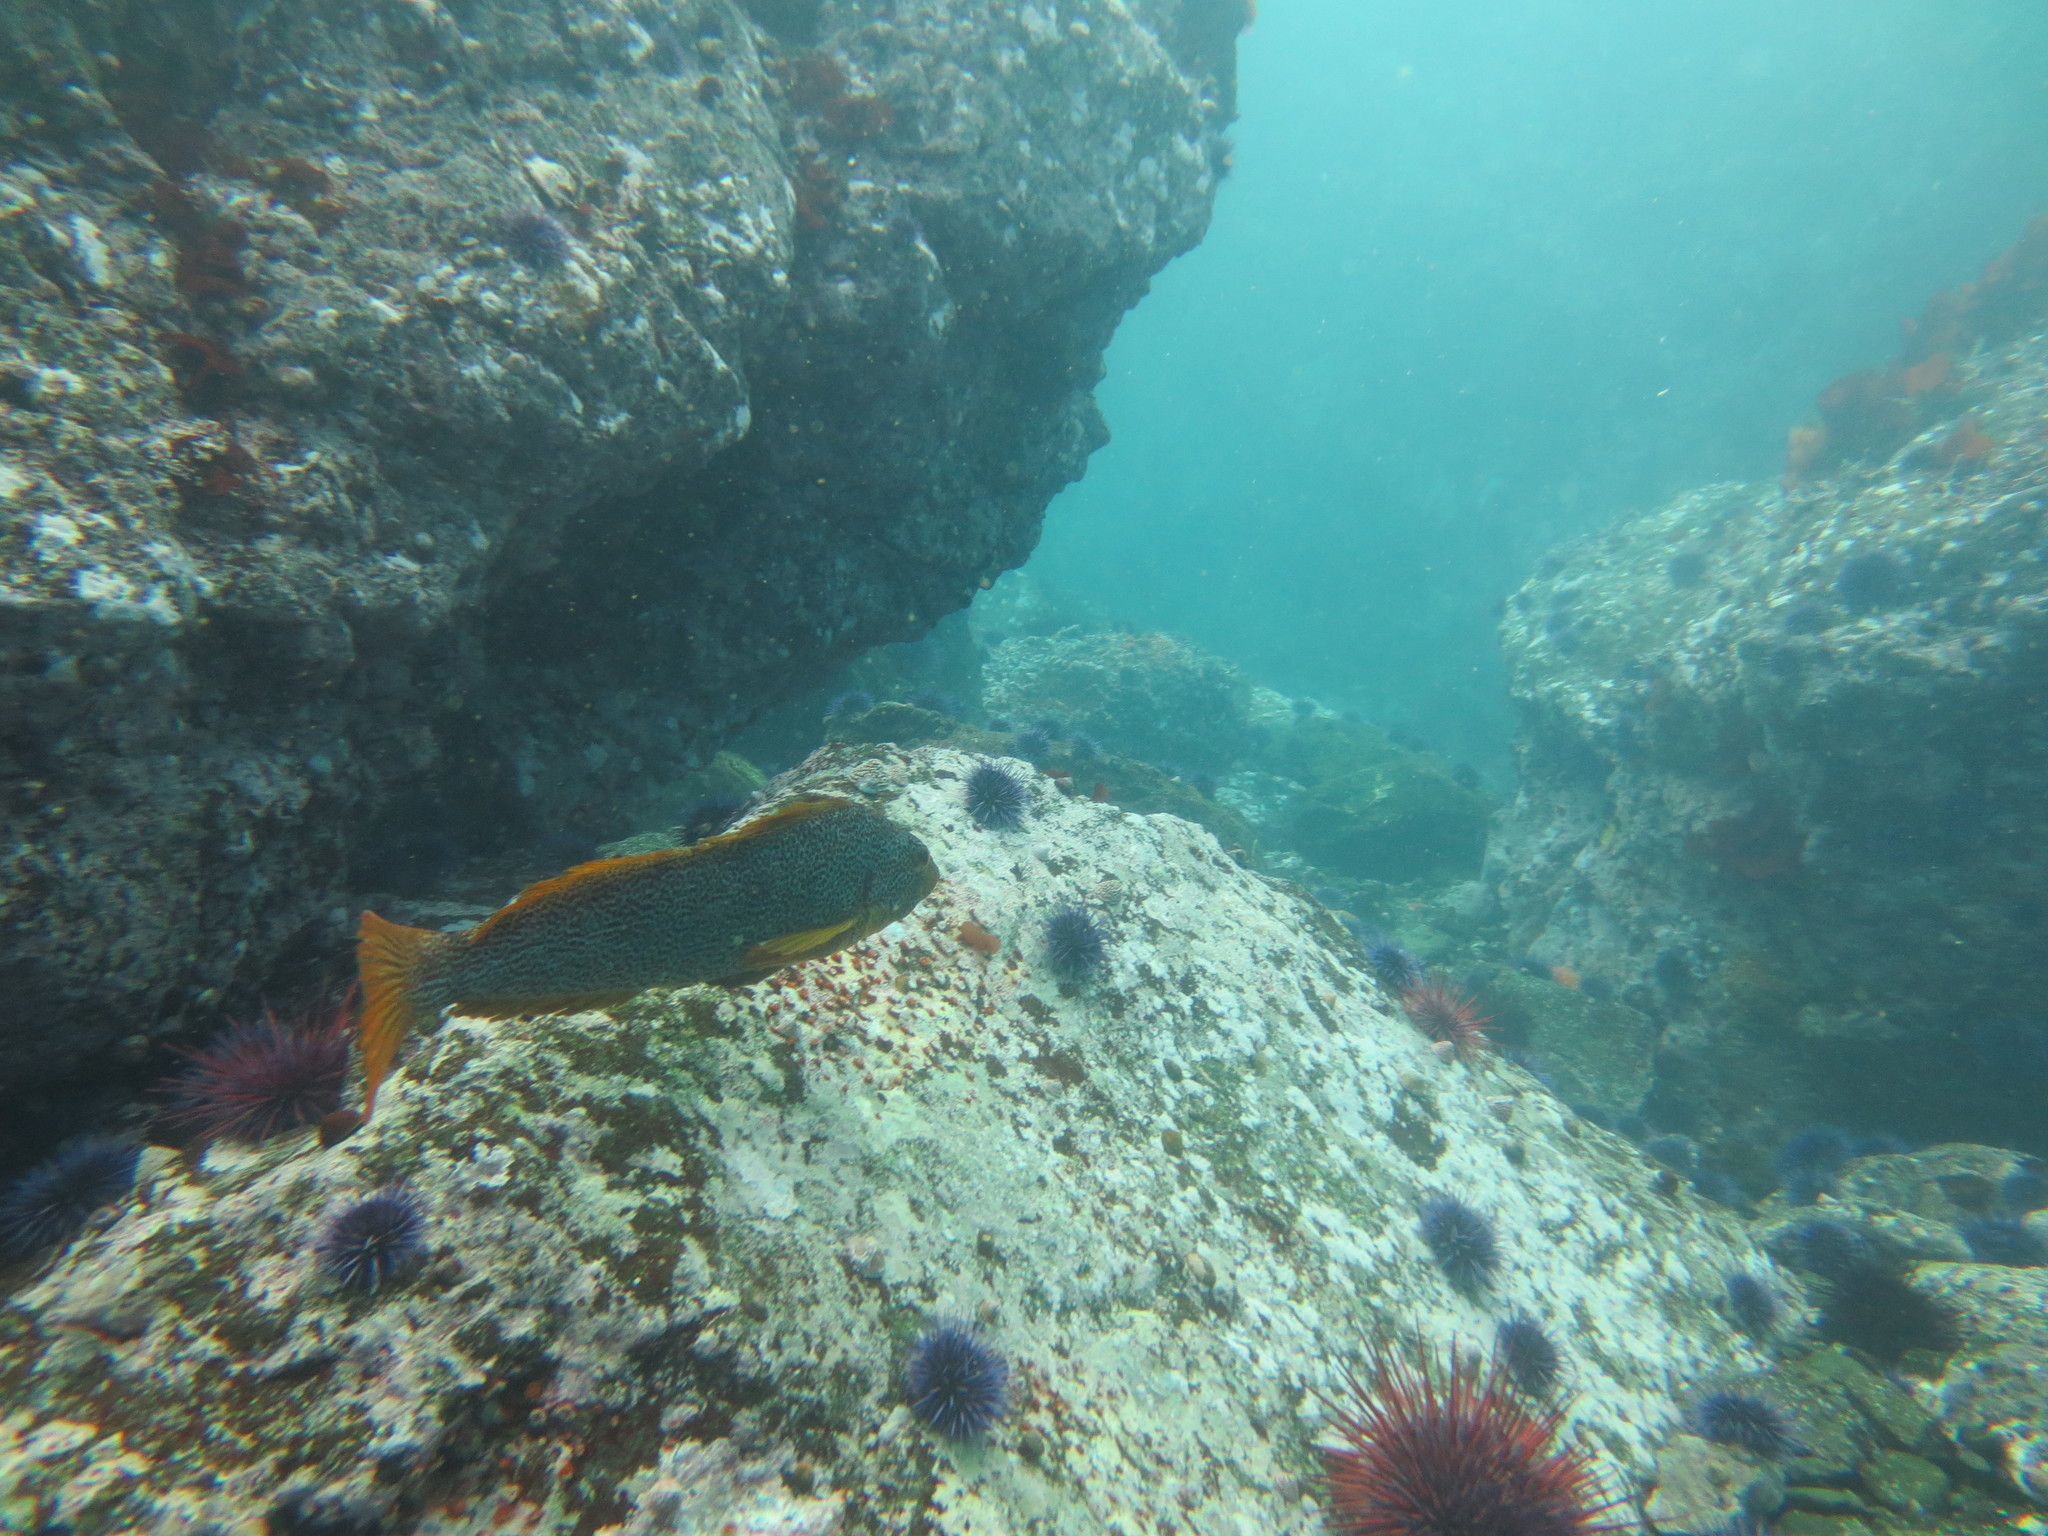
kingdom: Animalia
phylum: Chordata
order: Scorpaeniformes
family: Hexagrammidae
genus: Hexagrammos
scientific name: Hexagrammos decagrammus
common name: Kelp greenling
